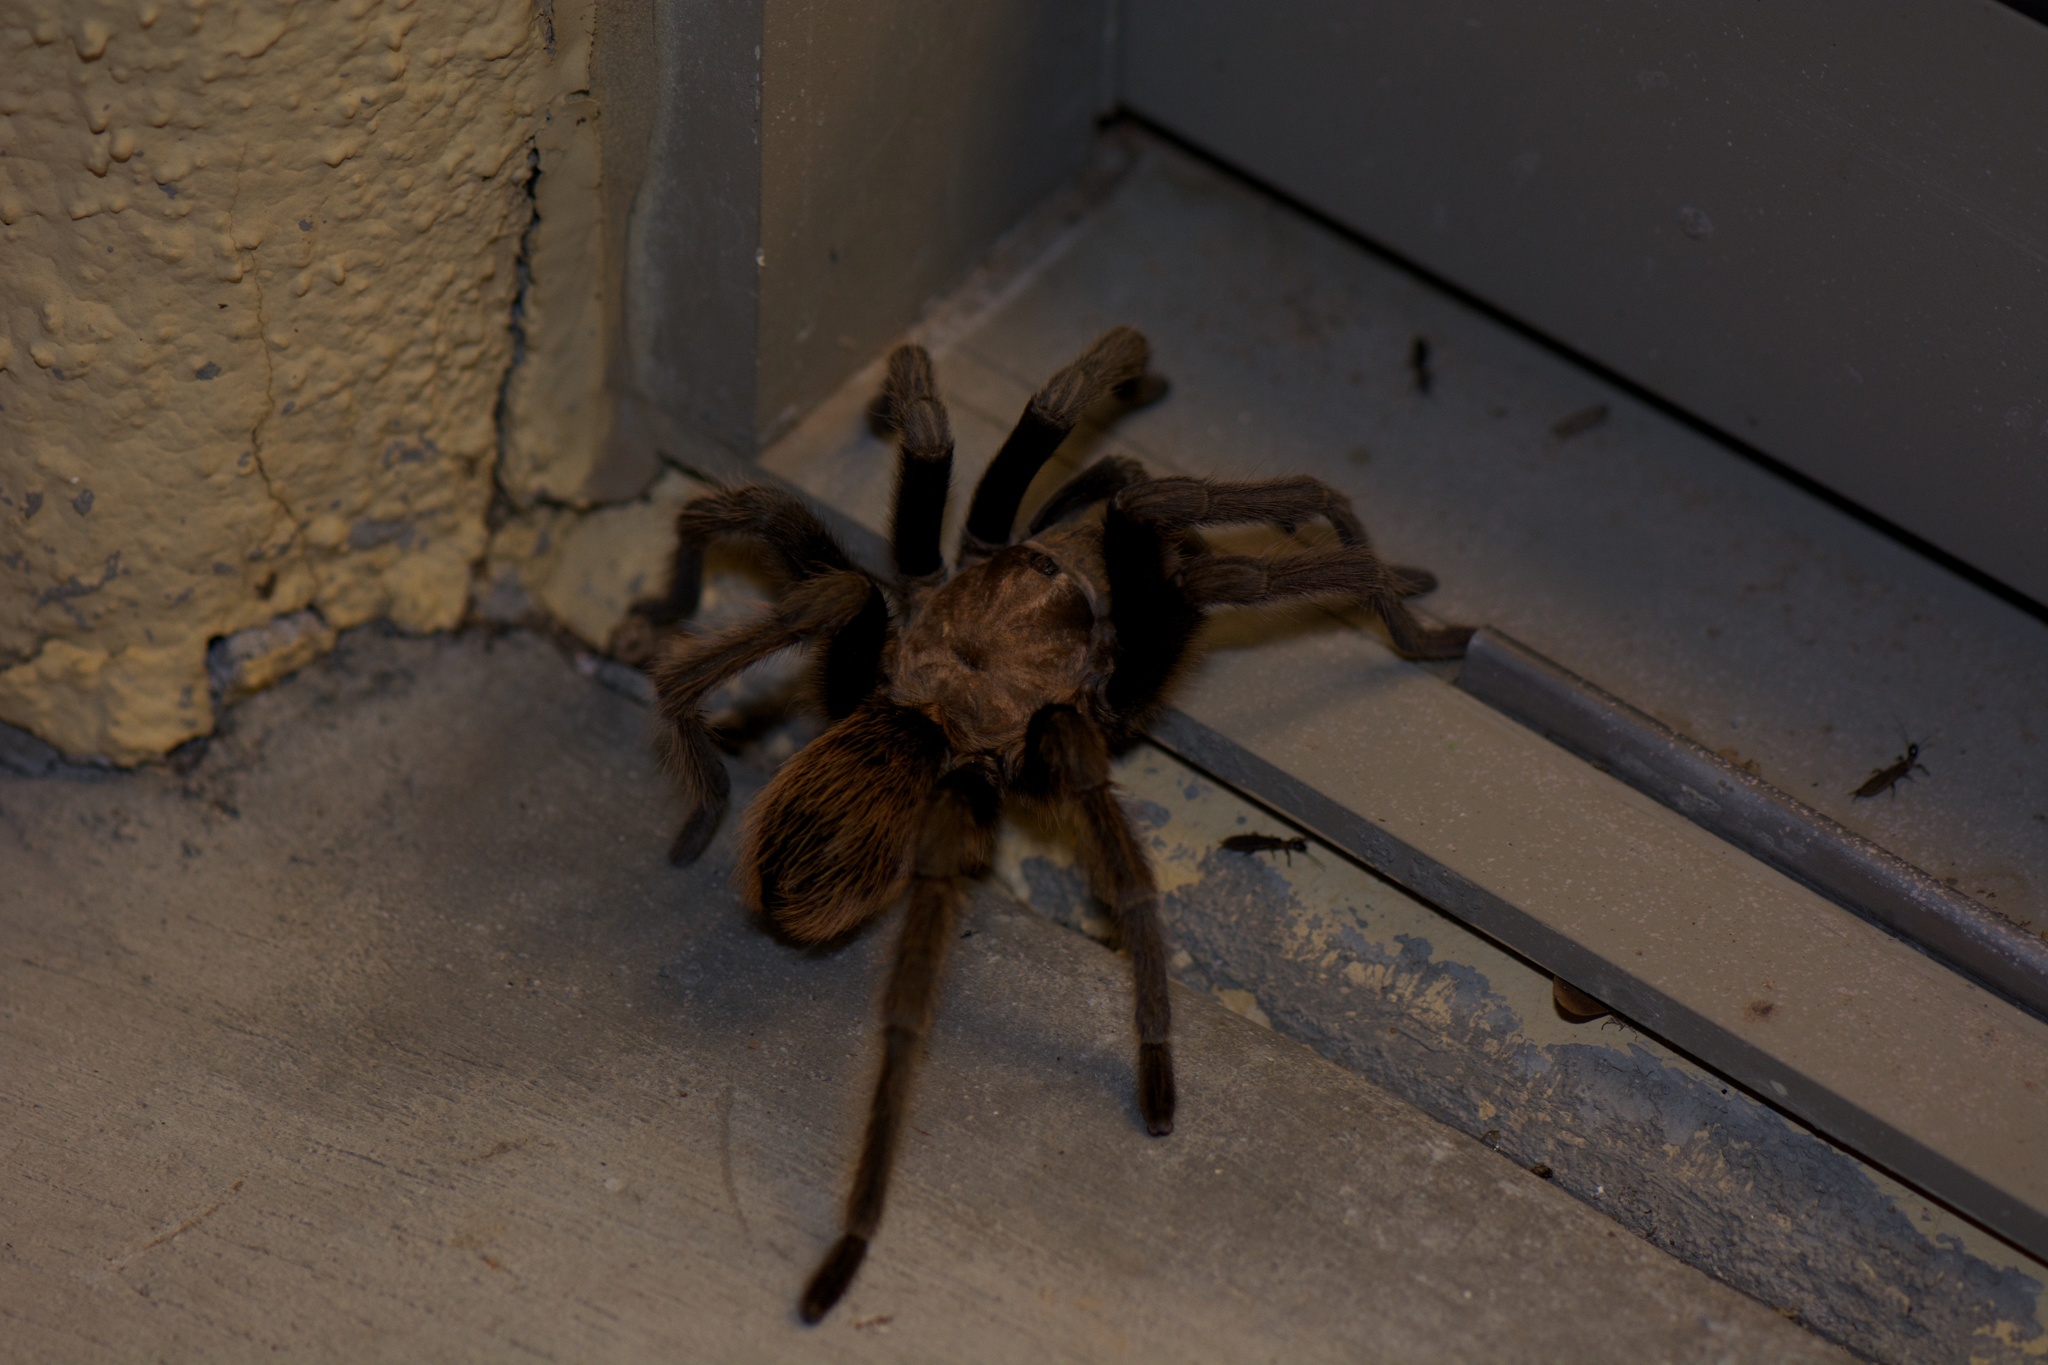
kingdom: Animalia
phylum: Arthropoda
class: Arachnida
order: Araneae
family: Theraphosidae
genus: Aphonopelma
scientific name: Aphonopelma chalcodes
